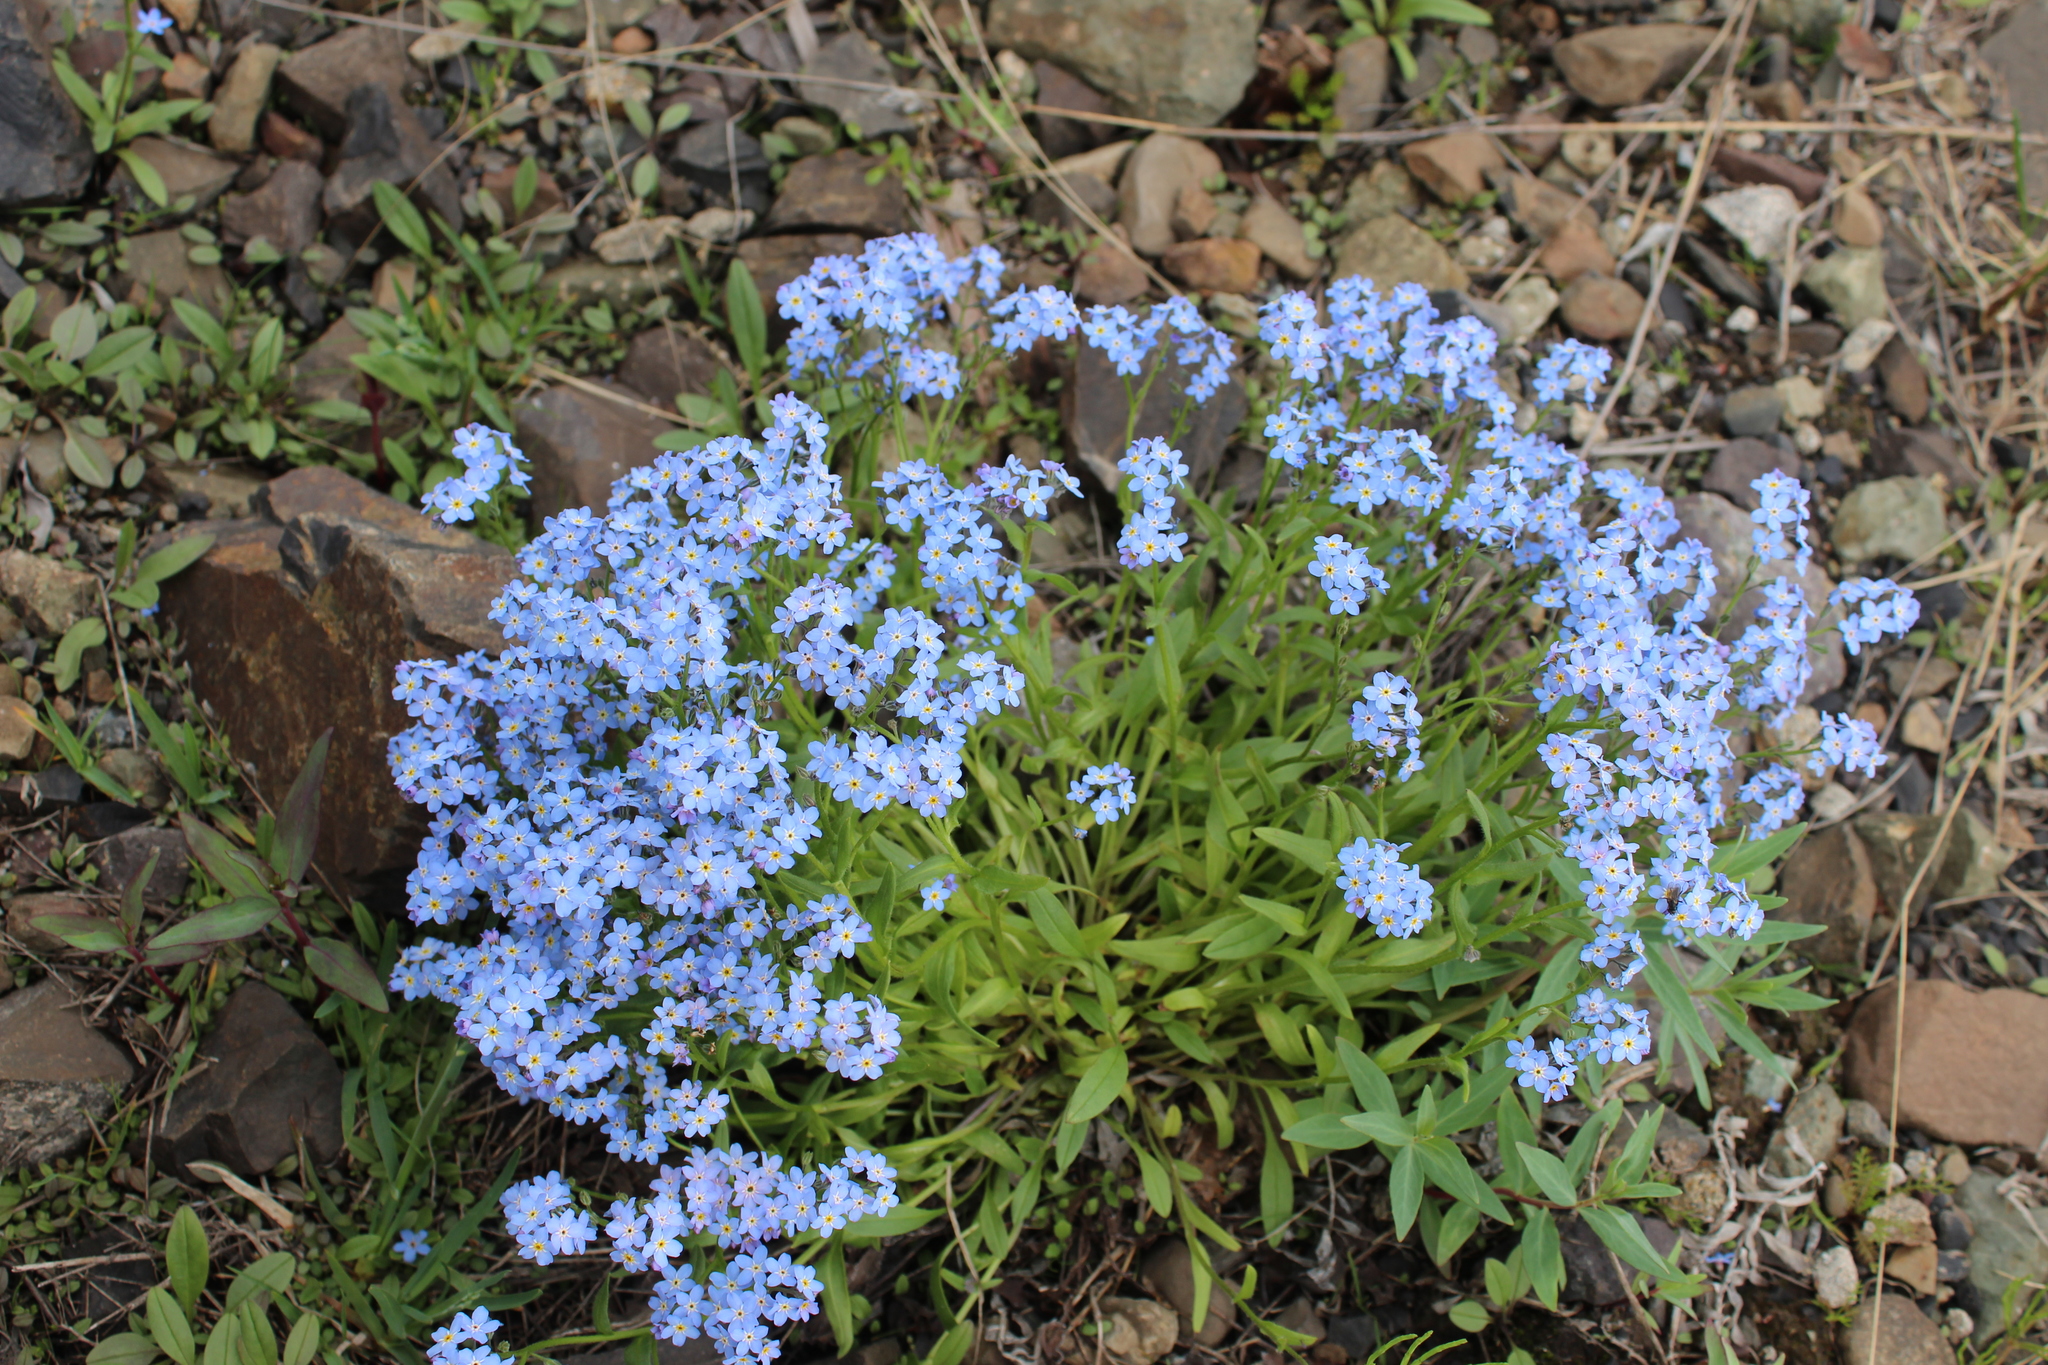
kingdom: Plantae
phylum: Tracheophyta
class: Magnoliopsida
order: Boraginales
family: Boraginaceae
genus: Myosotis
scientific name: Myosotis asiatica
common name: Asian forget-me-not
